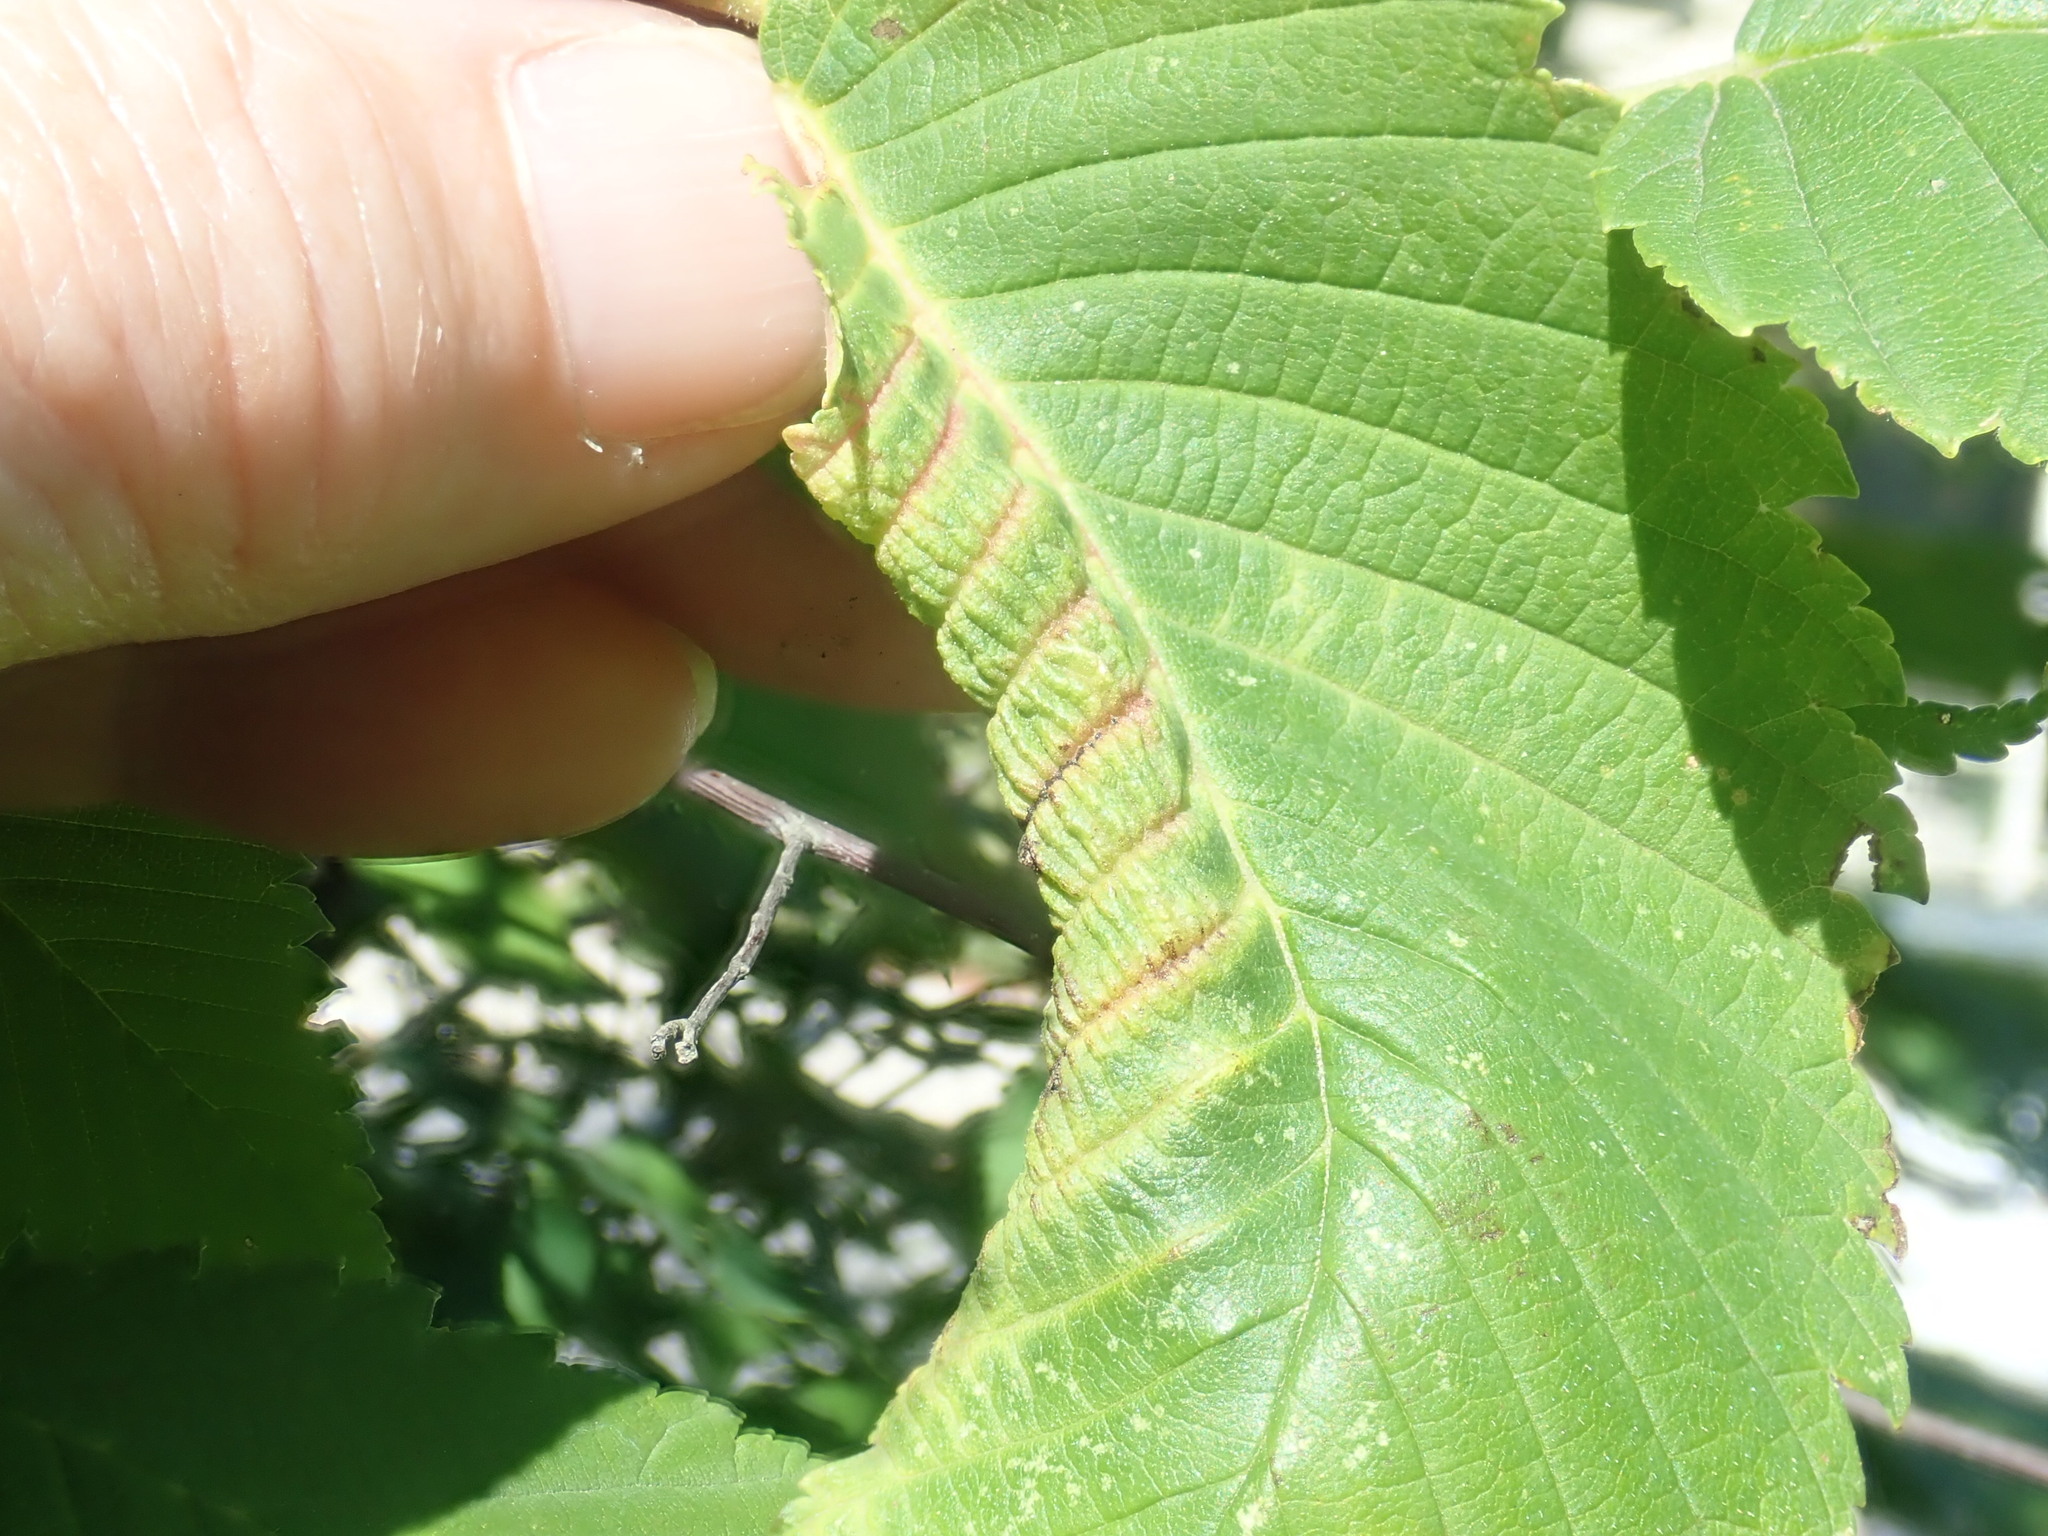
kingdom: Animalia
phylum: Arthropoda
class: Insecta
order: Hemiptera
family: Aphididae
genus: Eriosoma
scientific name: Eriosoma americanum
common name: Woolly elm aphid
